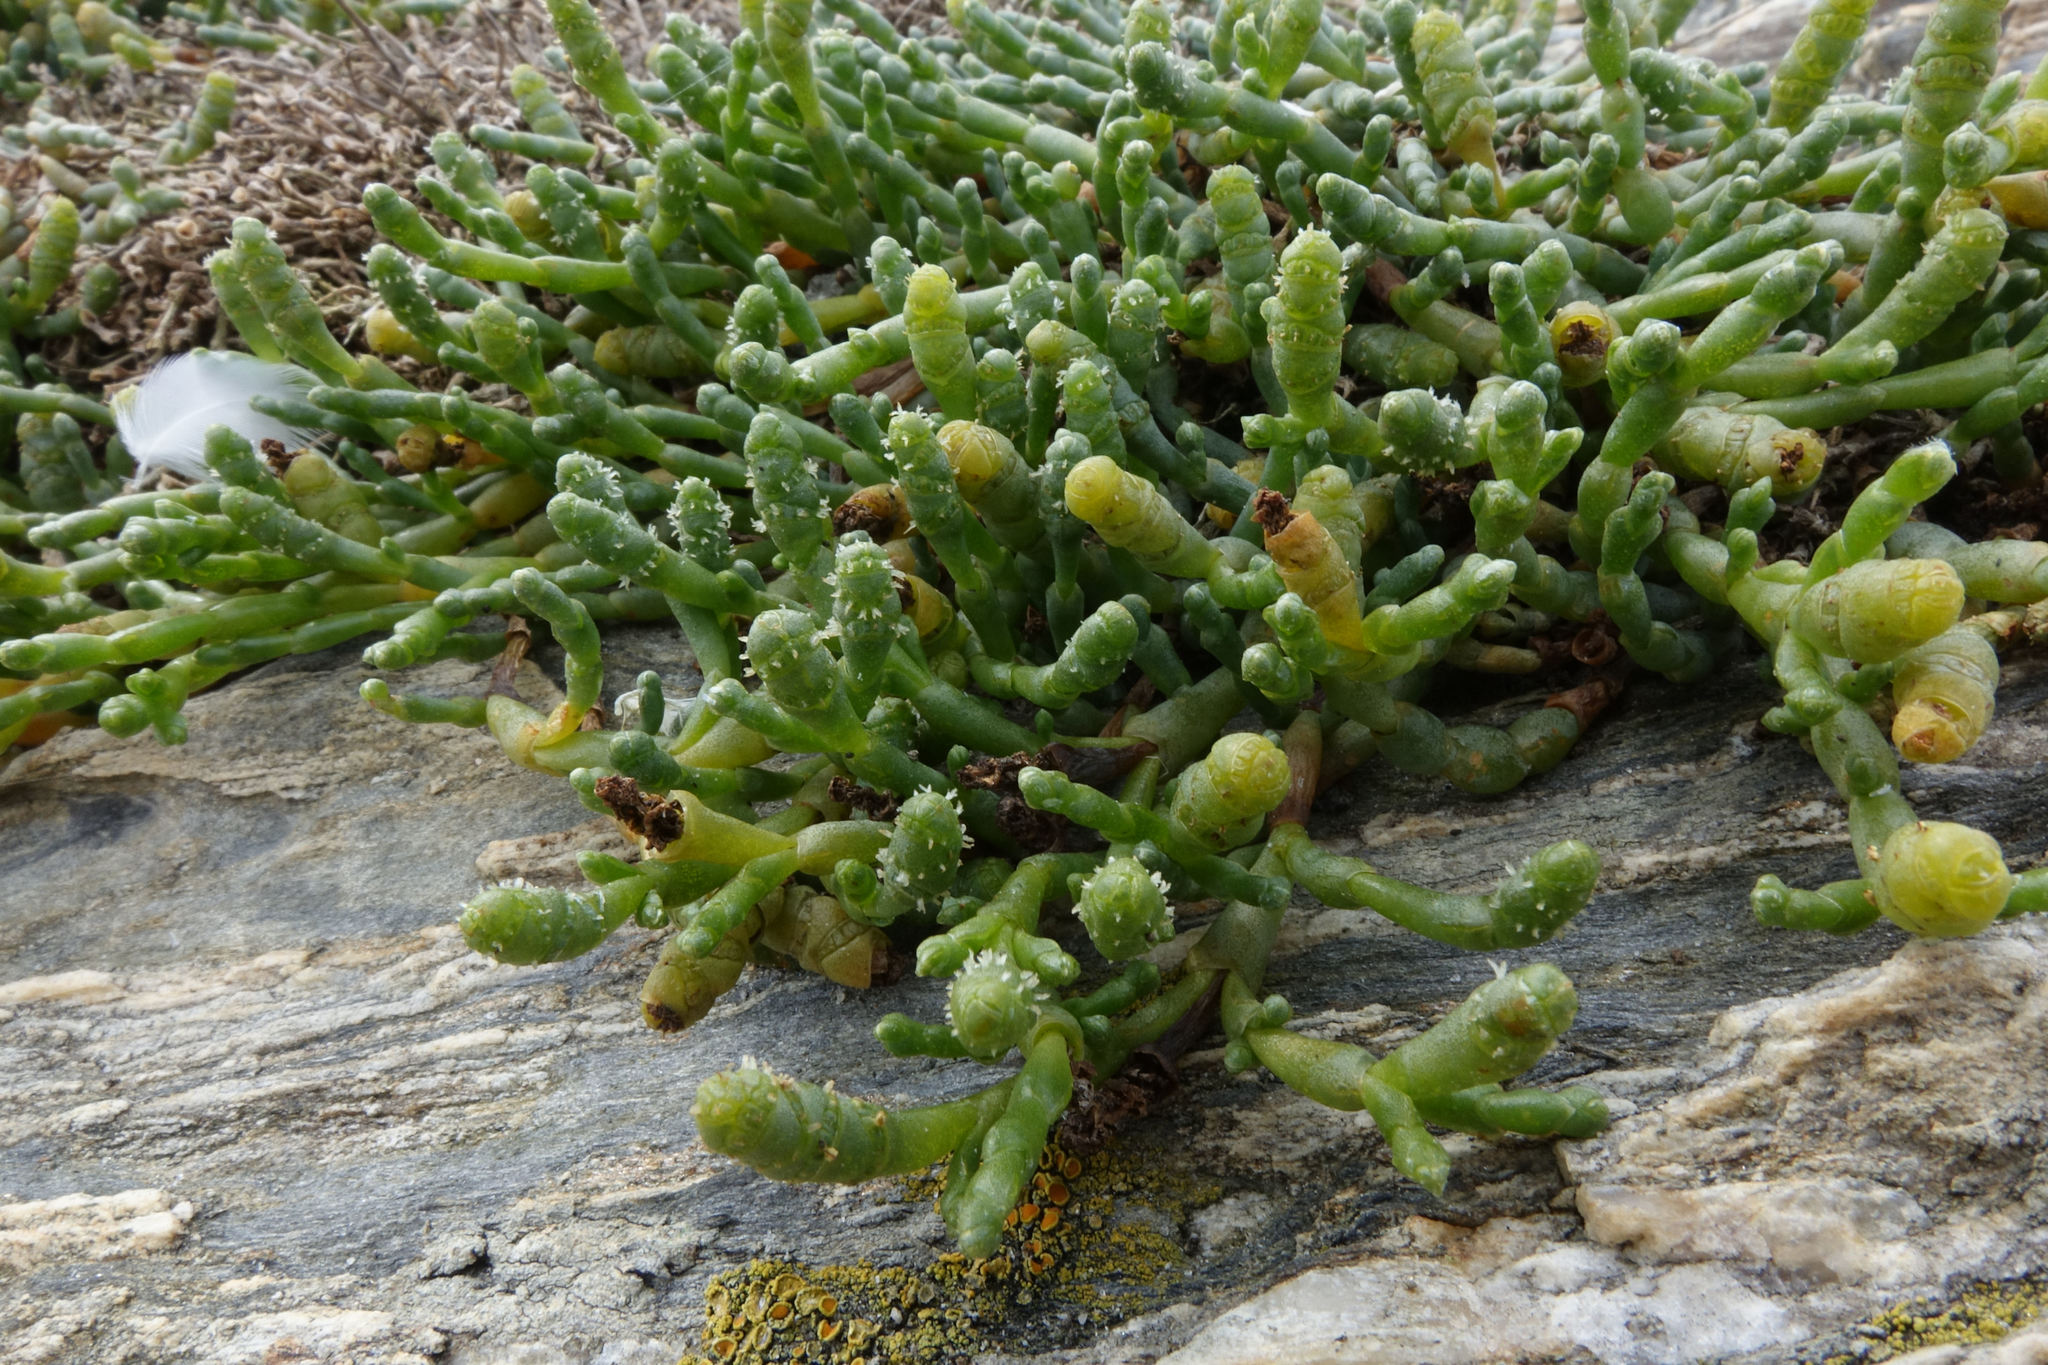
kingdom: Plantae
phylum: Tracheophyta
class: Magnoliopsida
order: Caryophyllales
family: Amaranthaceae
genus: Salicornia
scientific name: Salicornia quinqueflora
